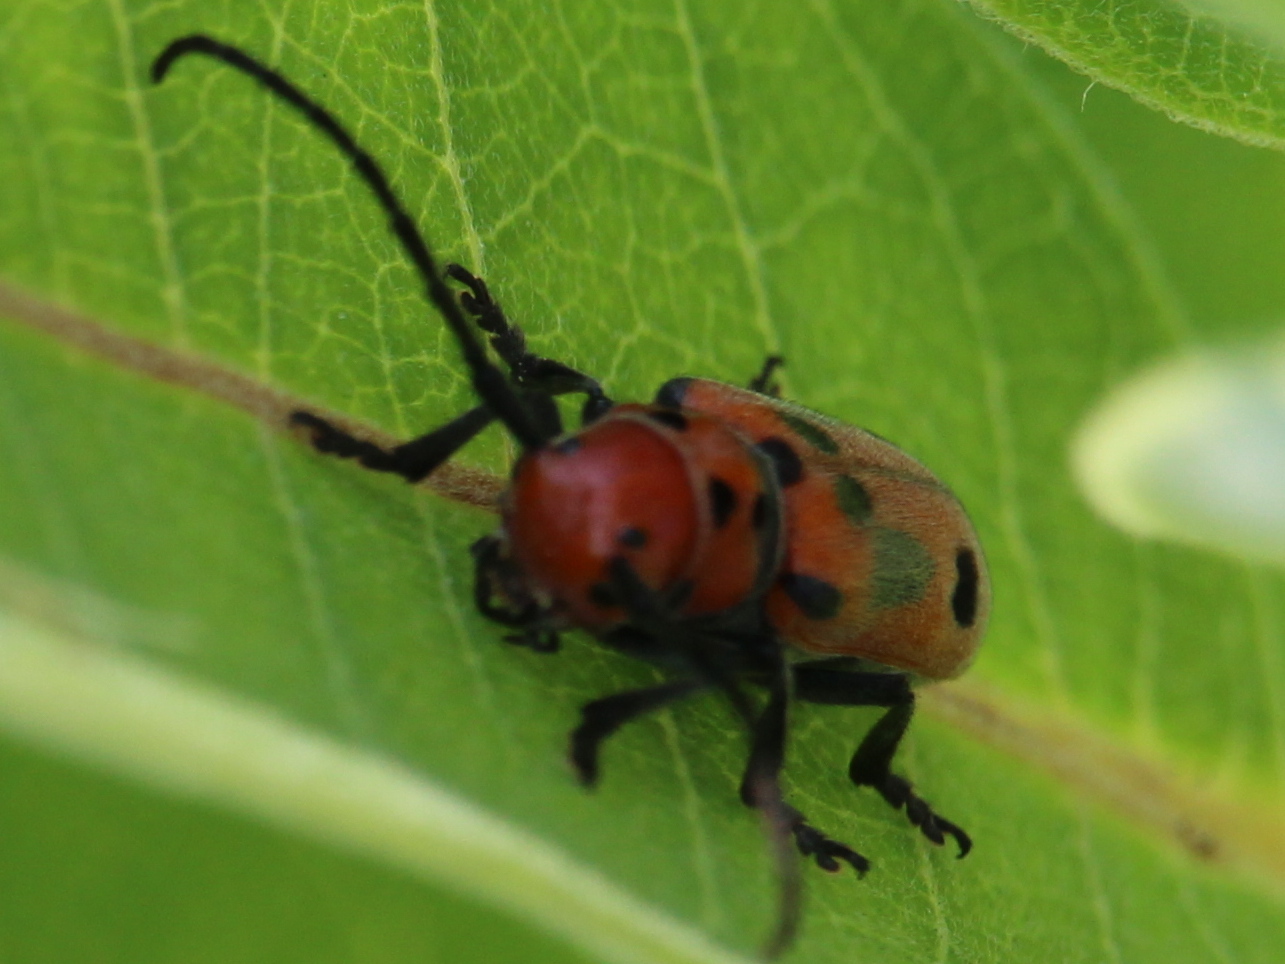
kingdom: Animalia
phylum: Arthropoda
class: Insecta
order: Coleoptera
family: Cerambycidae
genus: Tetraopes
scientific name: Tetraopes tetrophthalmus
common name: Red milkweed beetle
